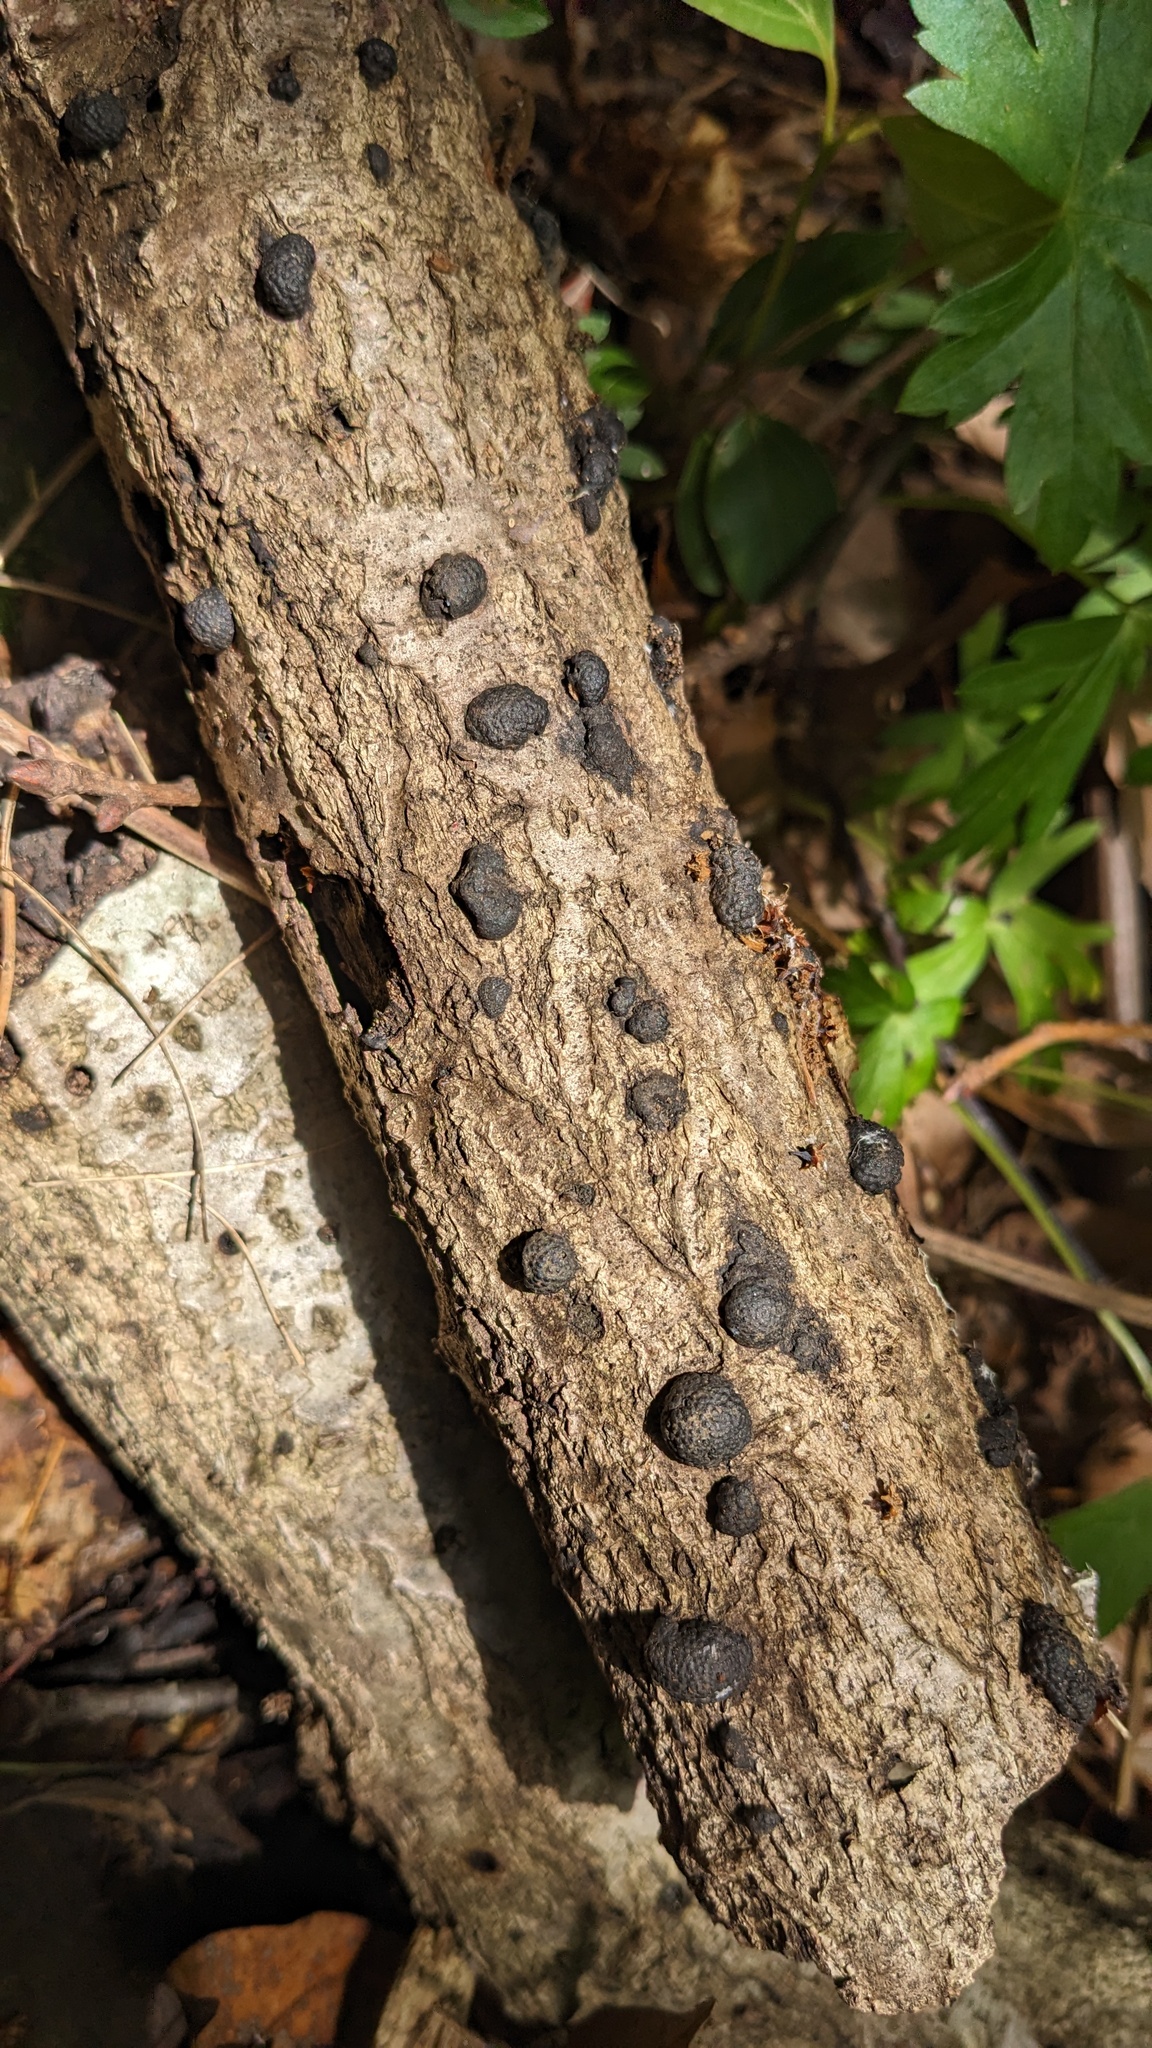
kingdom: Fungi
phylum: Ascomycota
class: Sordariomycetes
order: Xylariales
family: Hypoxylaceae
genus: Annulohypoxylon
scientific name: Annulohypoxylon truncatum
